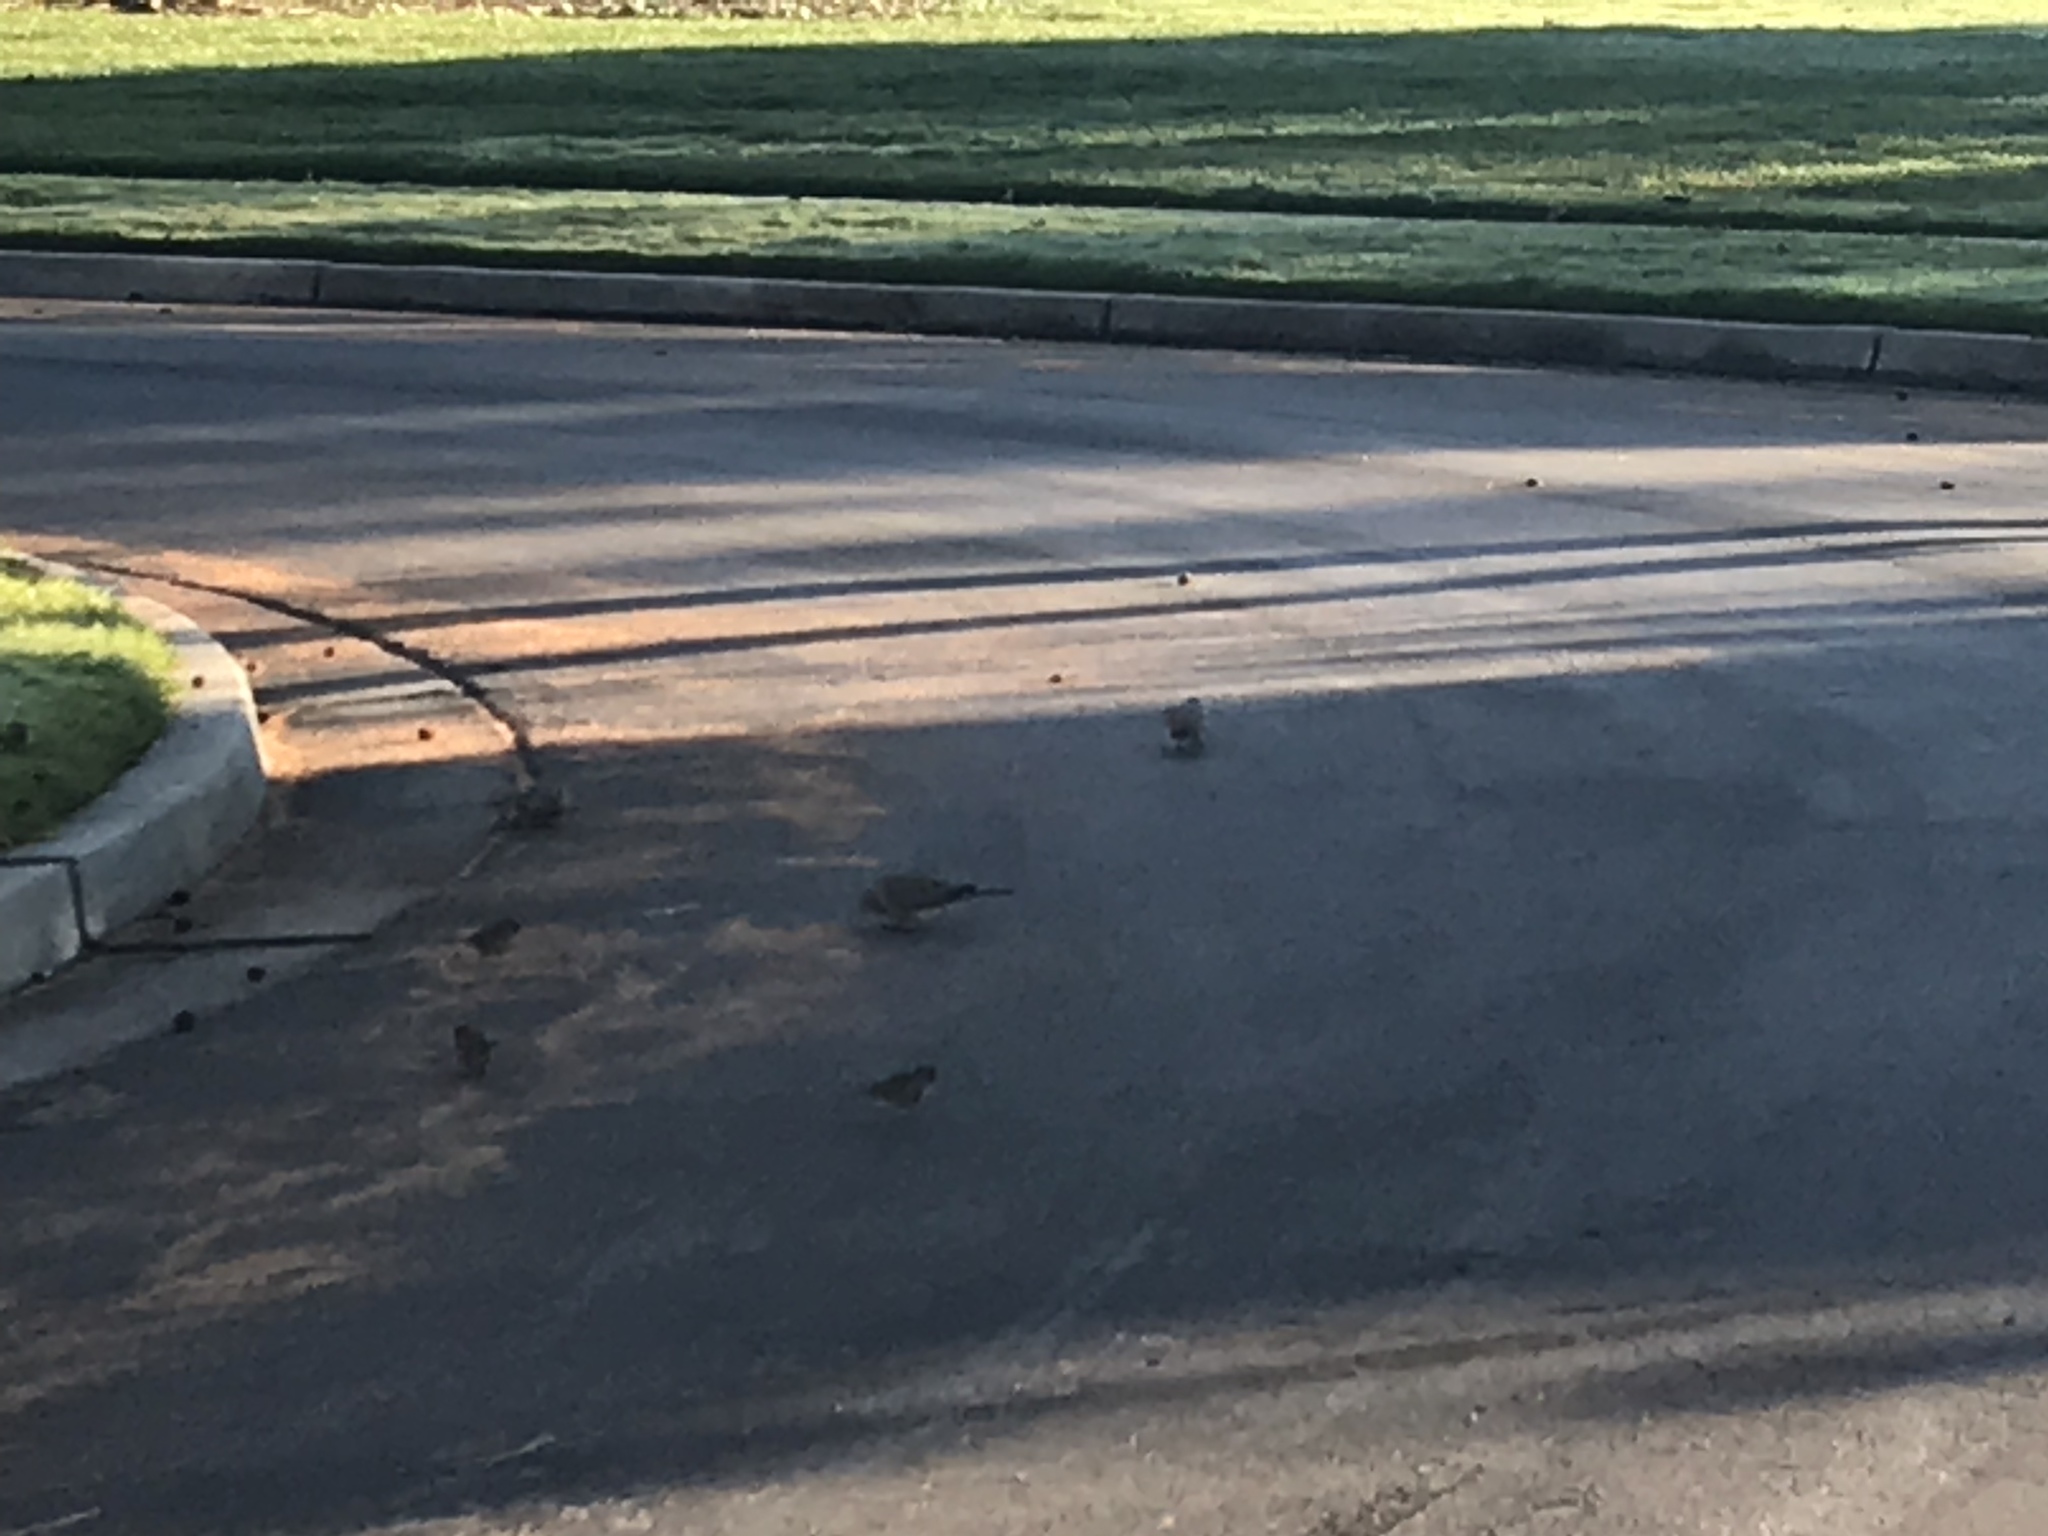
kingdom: Animalia
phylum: Chordata
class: Aves
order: Columbiformes
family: Columbidae
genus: Zenaida
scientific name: Zenaida macroura
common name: Mourning dove
